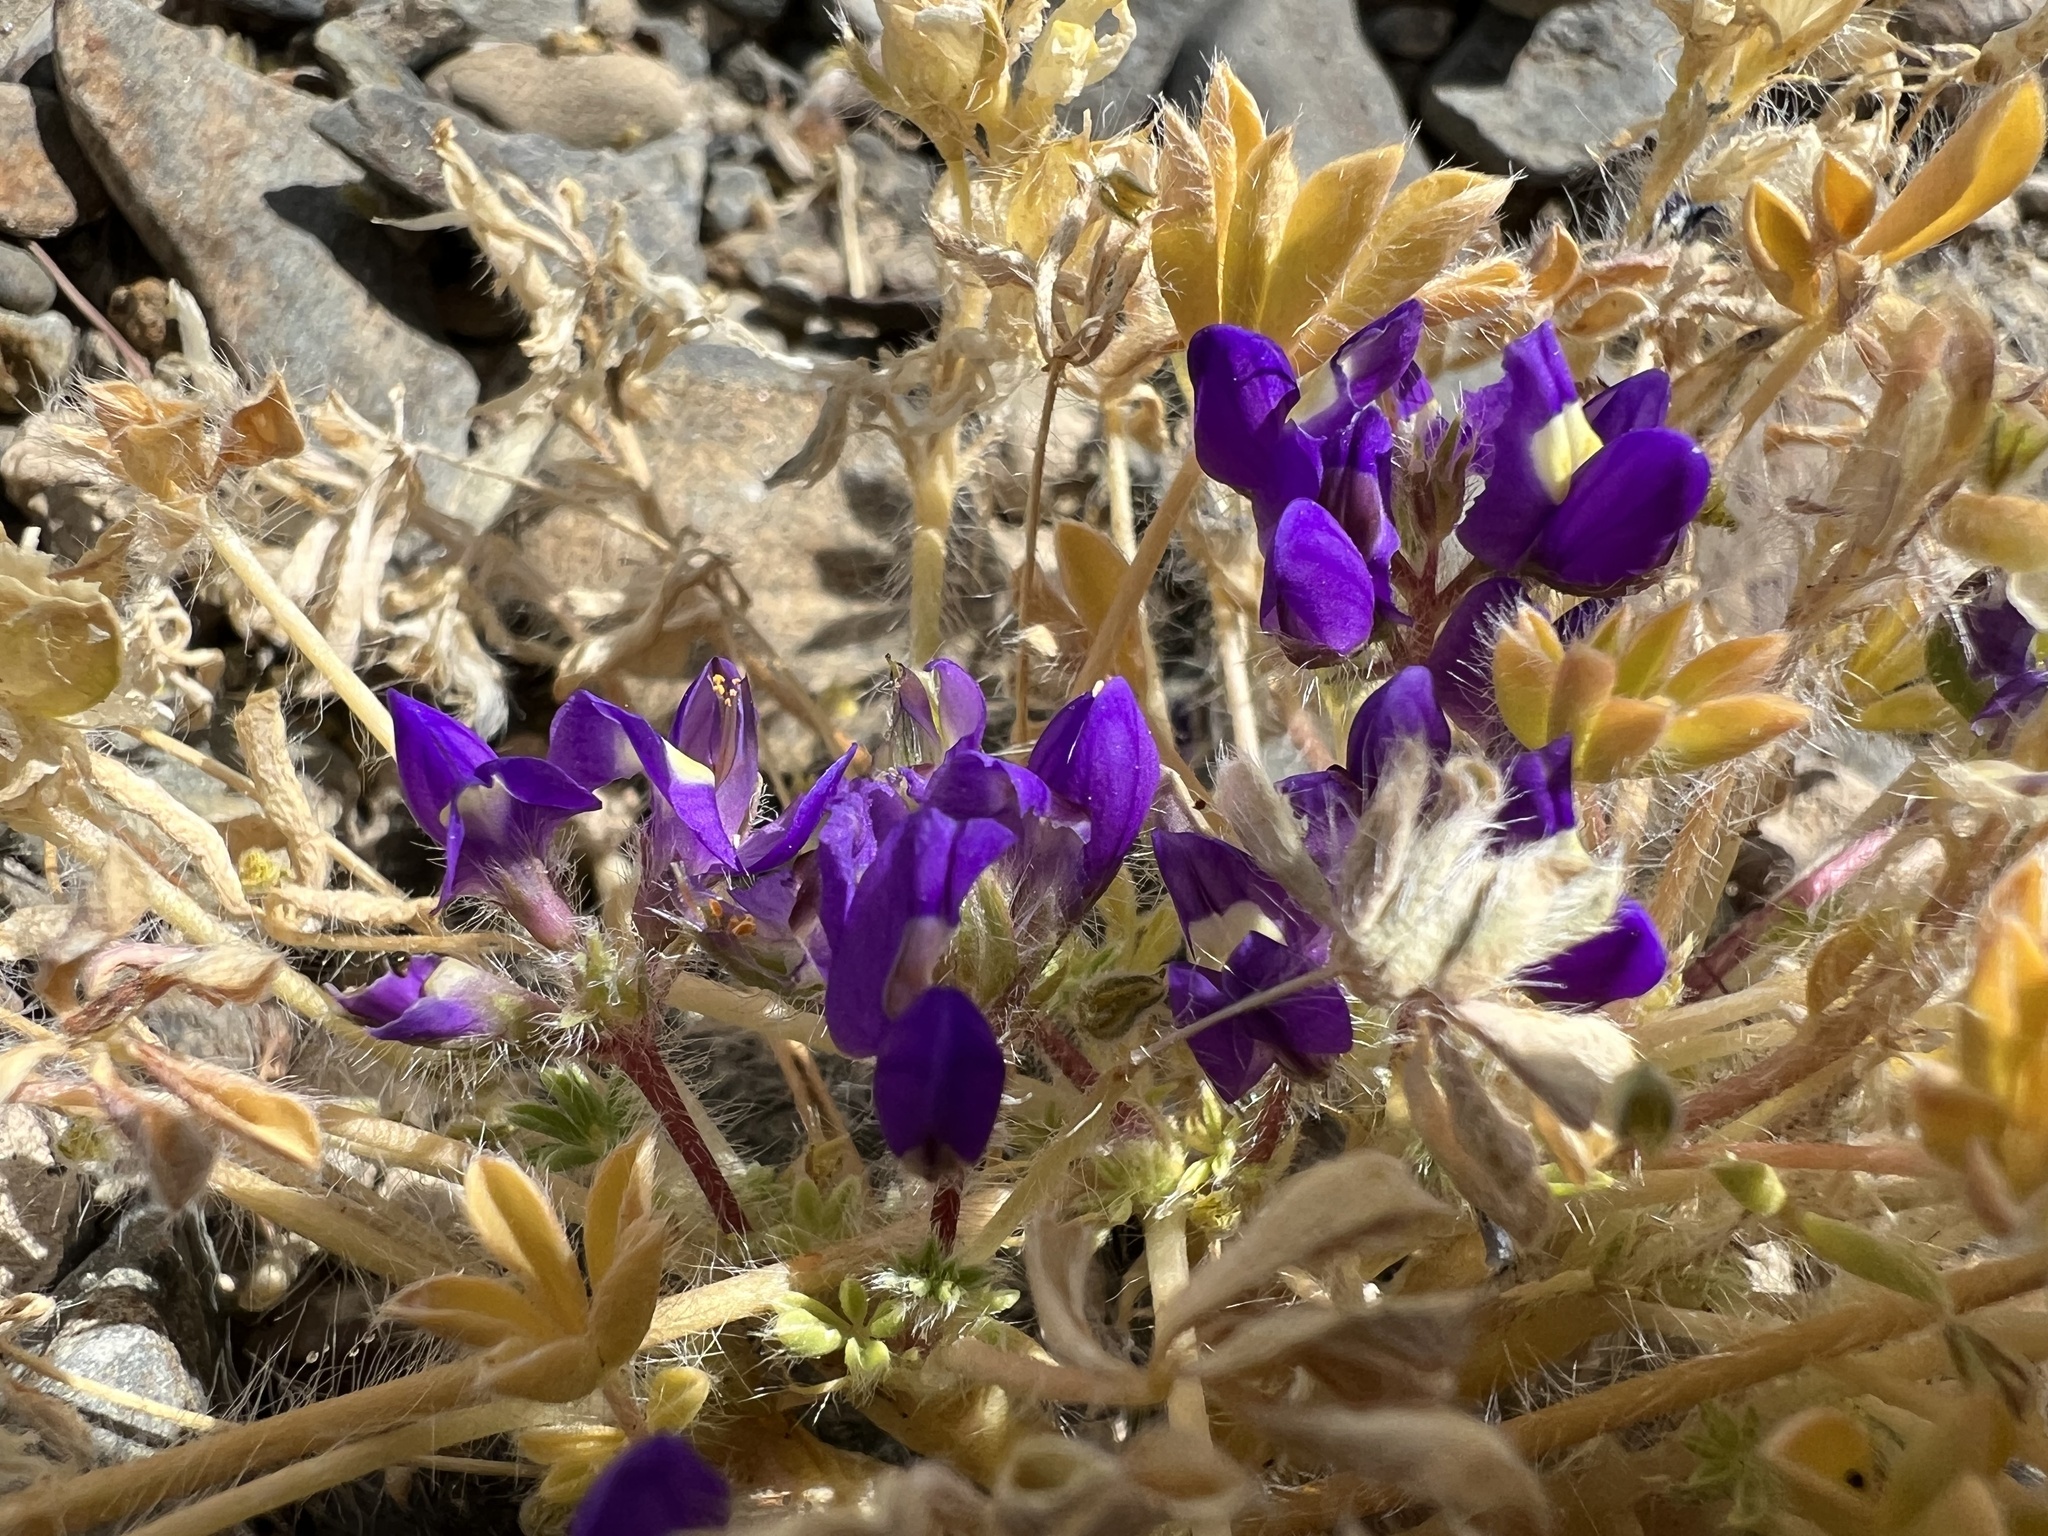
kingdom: Plantae
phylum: Tracheophyta
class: Magnoliopsida
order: Fabales
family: Fabaceae
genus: Lupinus
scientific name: Lupinus flavoculatus
